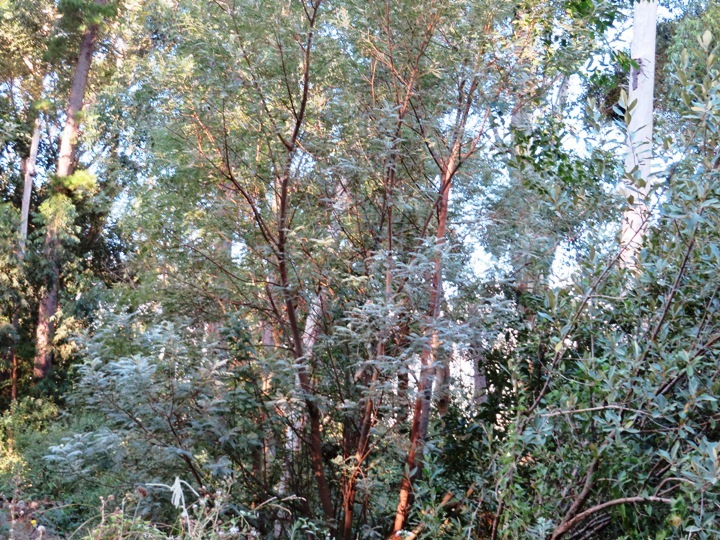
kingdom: Plantae
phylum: Tracheophyta
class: Magnoliopsida
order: Fabales
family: Fabaceae
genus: Virgilia
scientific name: Virgilia oroboides
